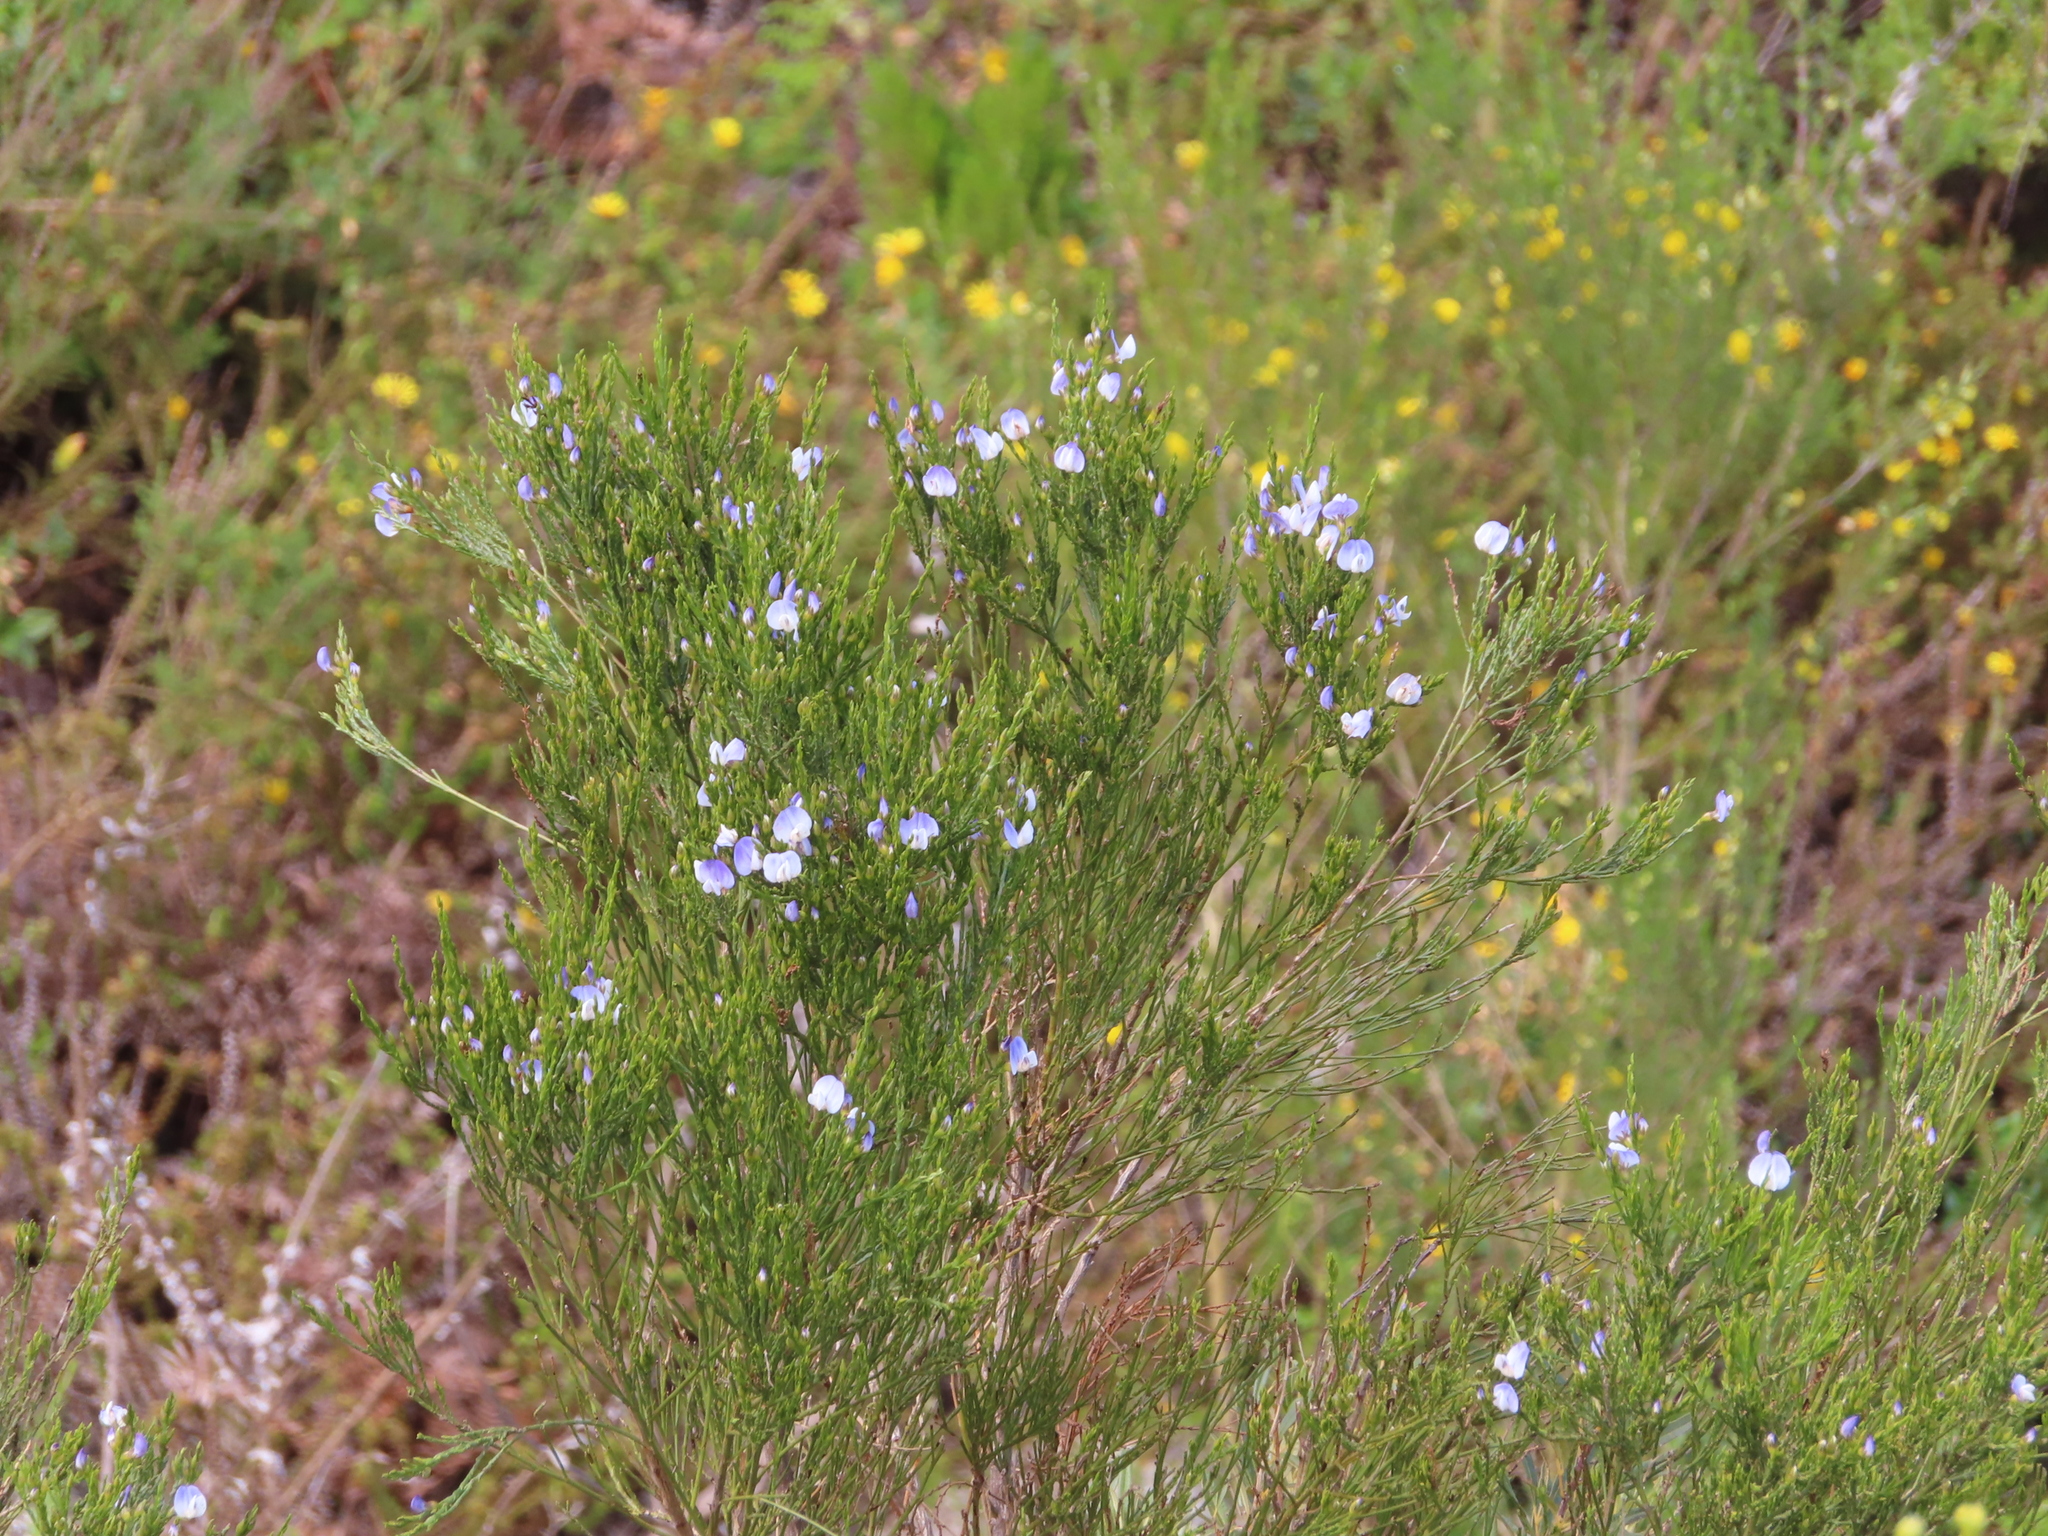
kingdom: Plantae
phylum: Tracheophyta
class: Magnoliopsida
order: Fabales
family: Fabaceae
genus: Psoralea
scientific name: Psoralea affinis
